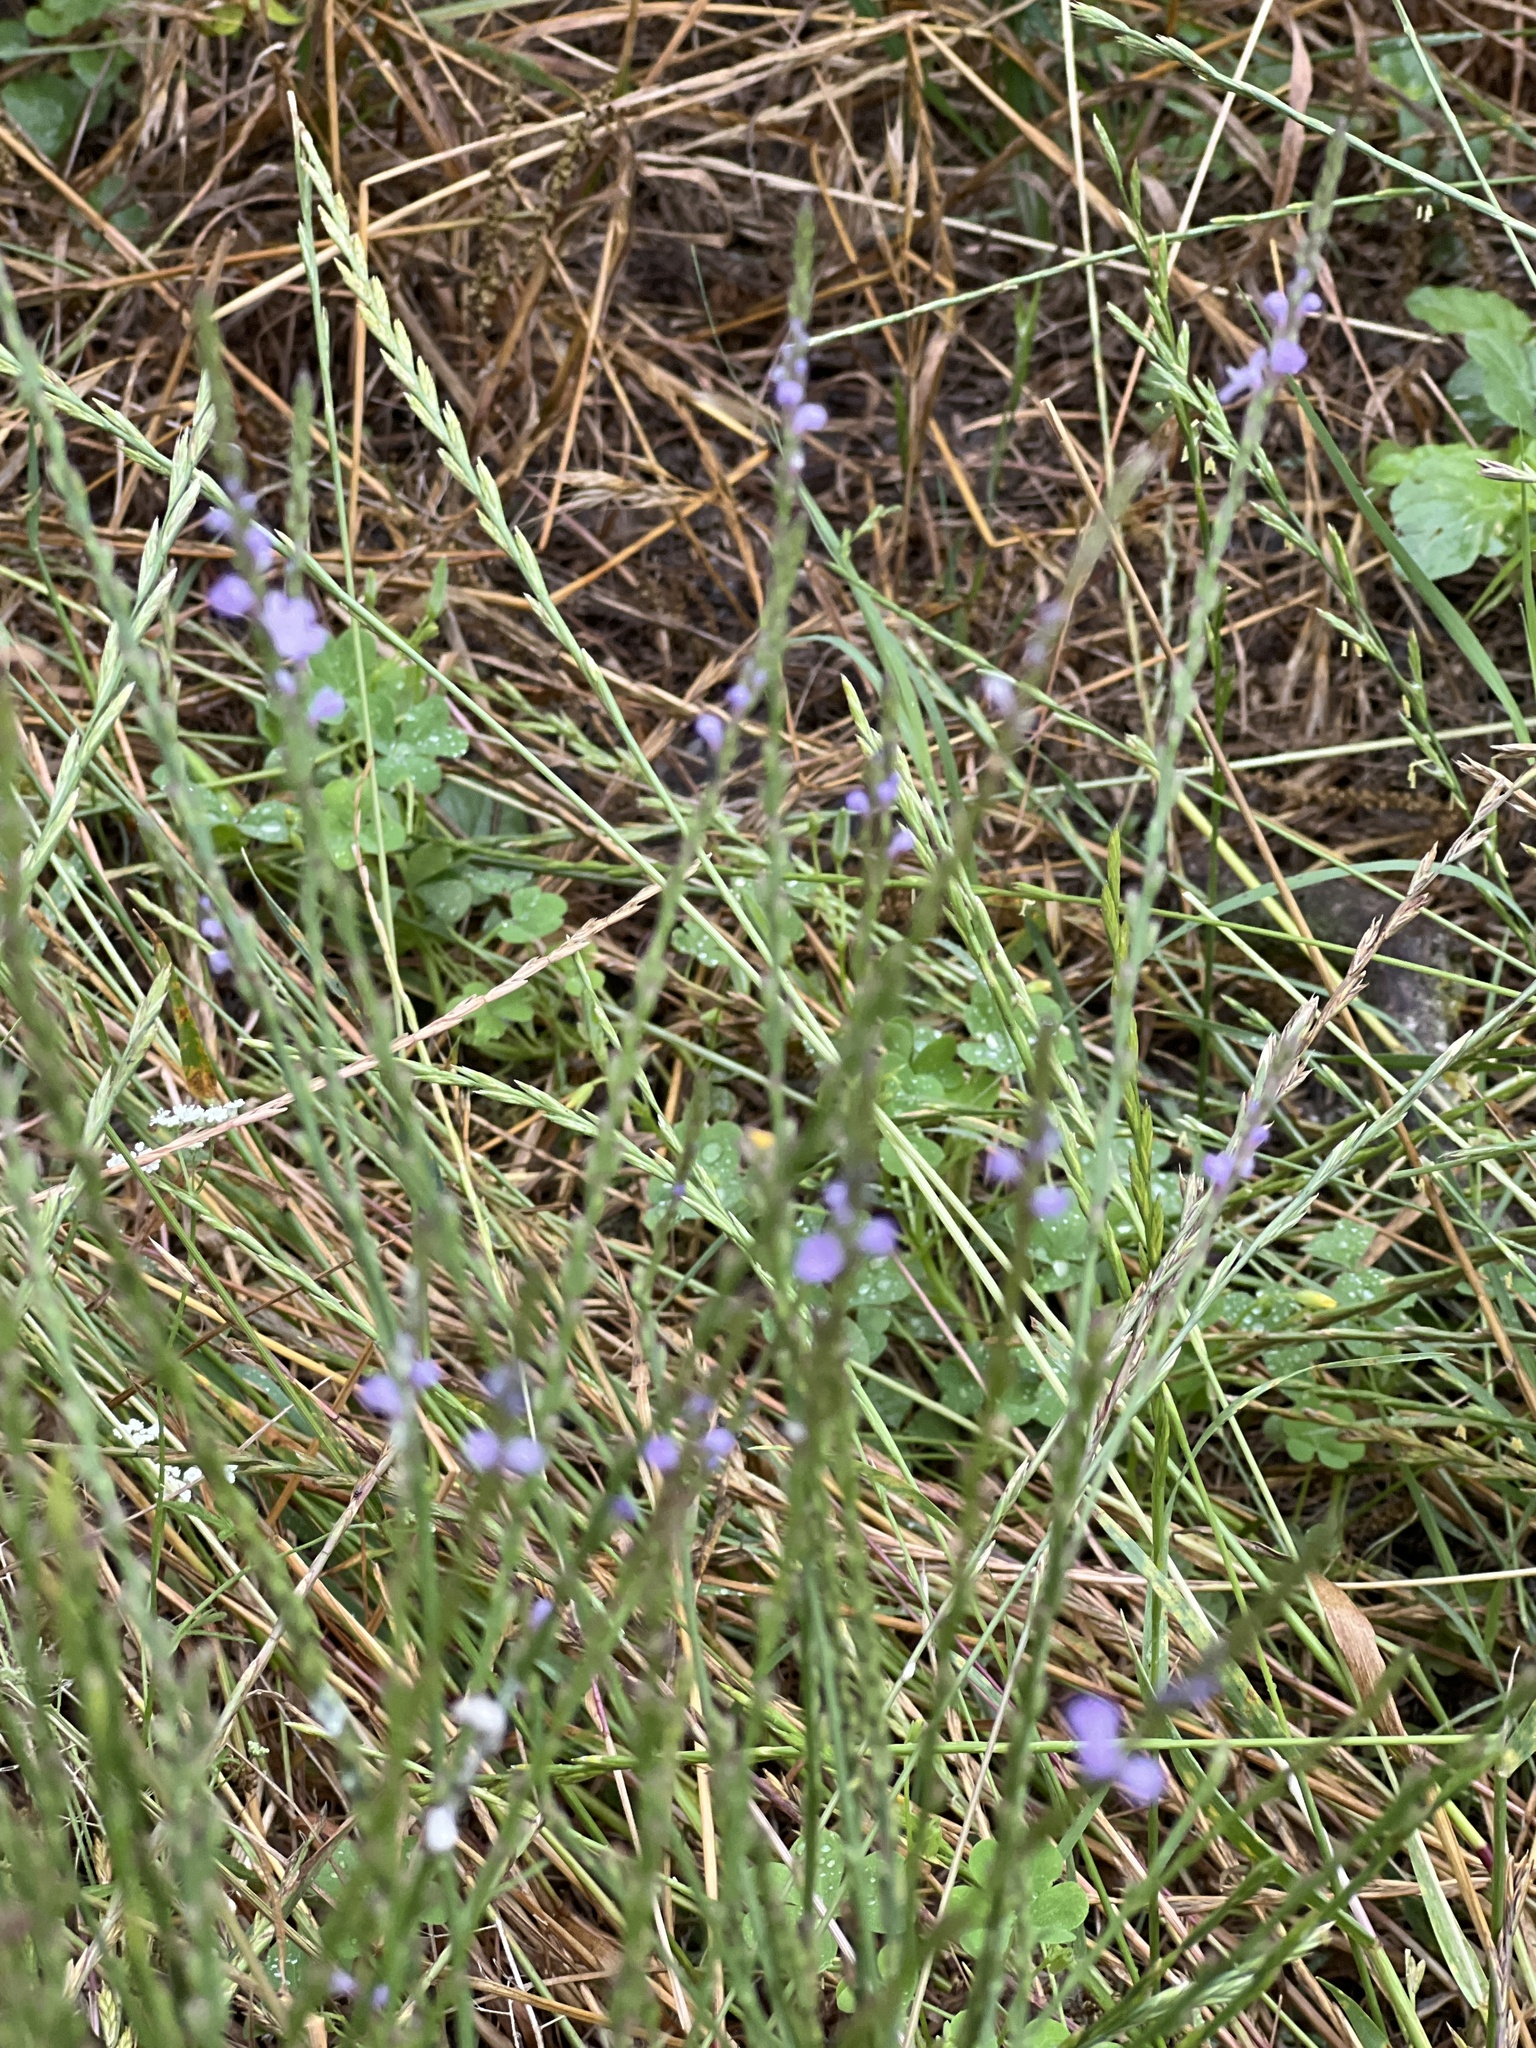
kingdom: Plantae
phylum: Tracheophyta
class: Magnoliopsida
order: Lamiales
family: Verbenaceae
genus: Verbena
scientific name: Verbena halei
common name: Texas vervain
